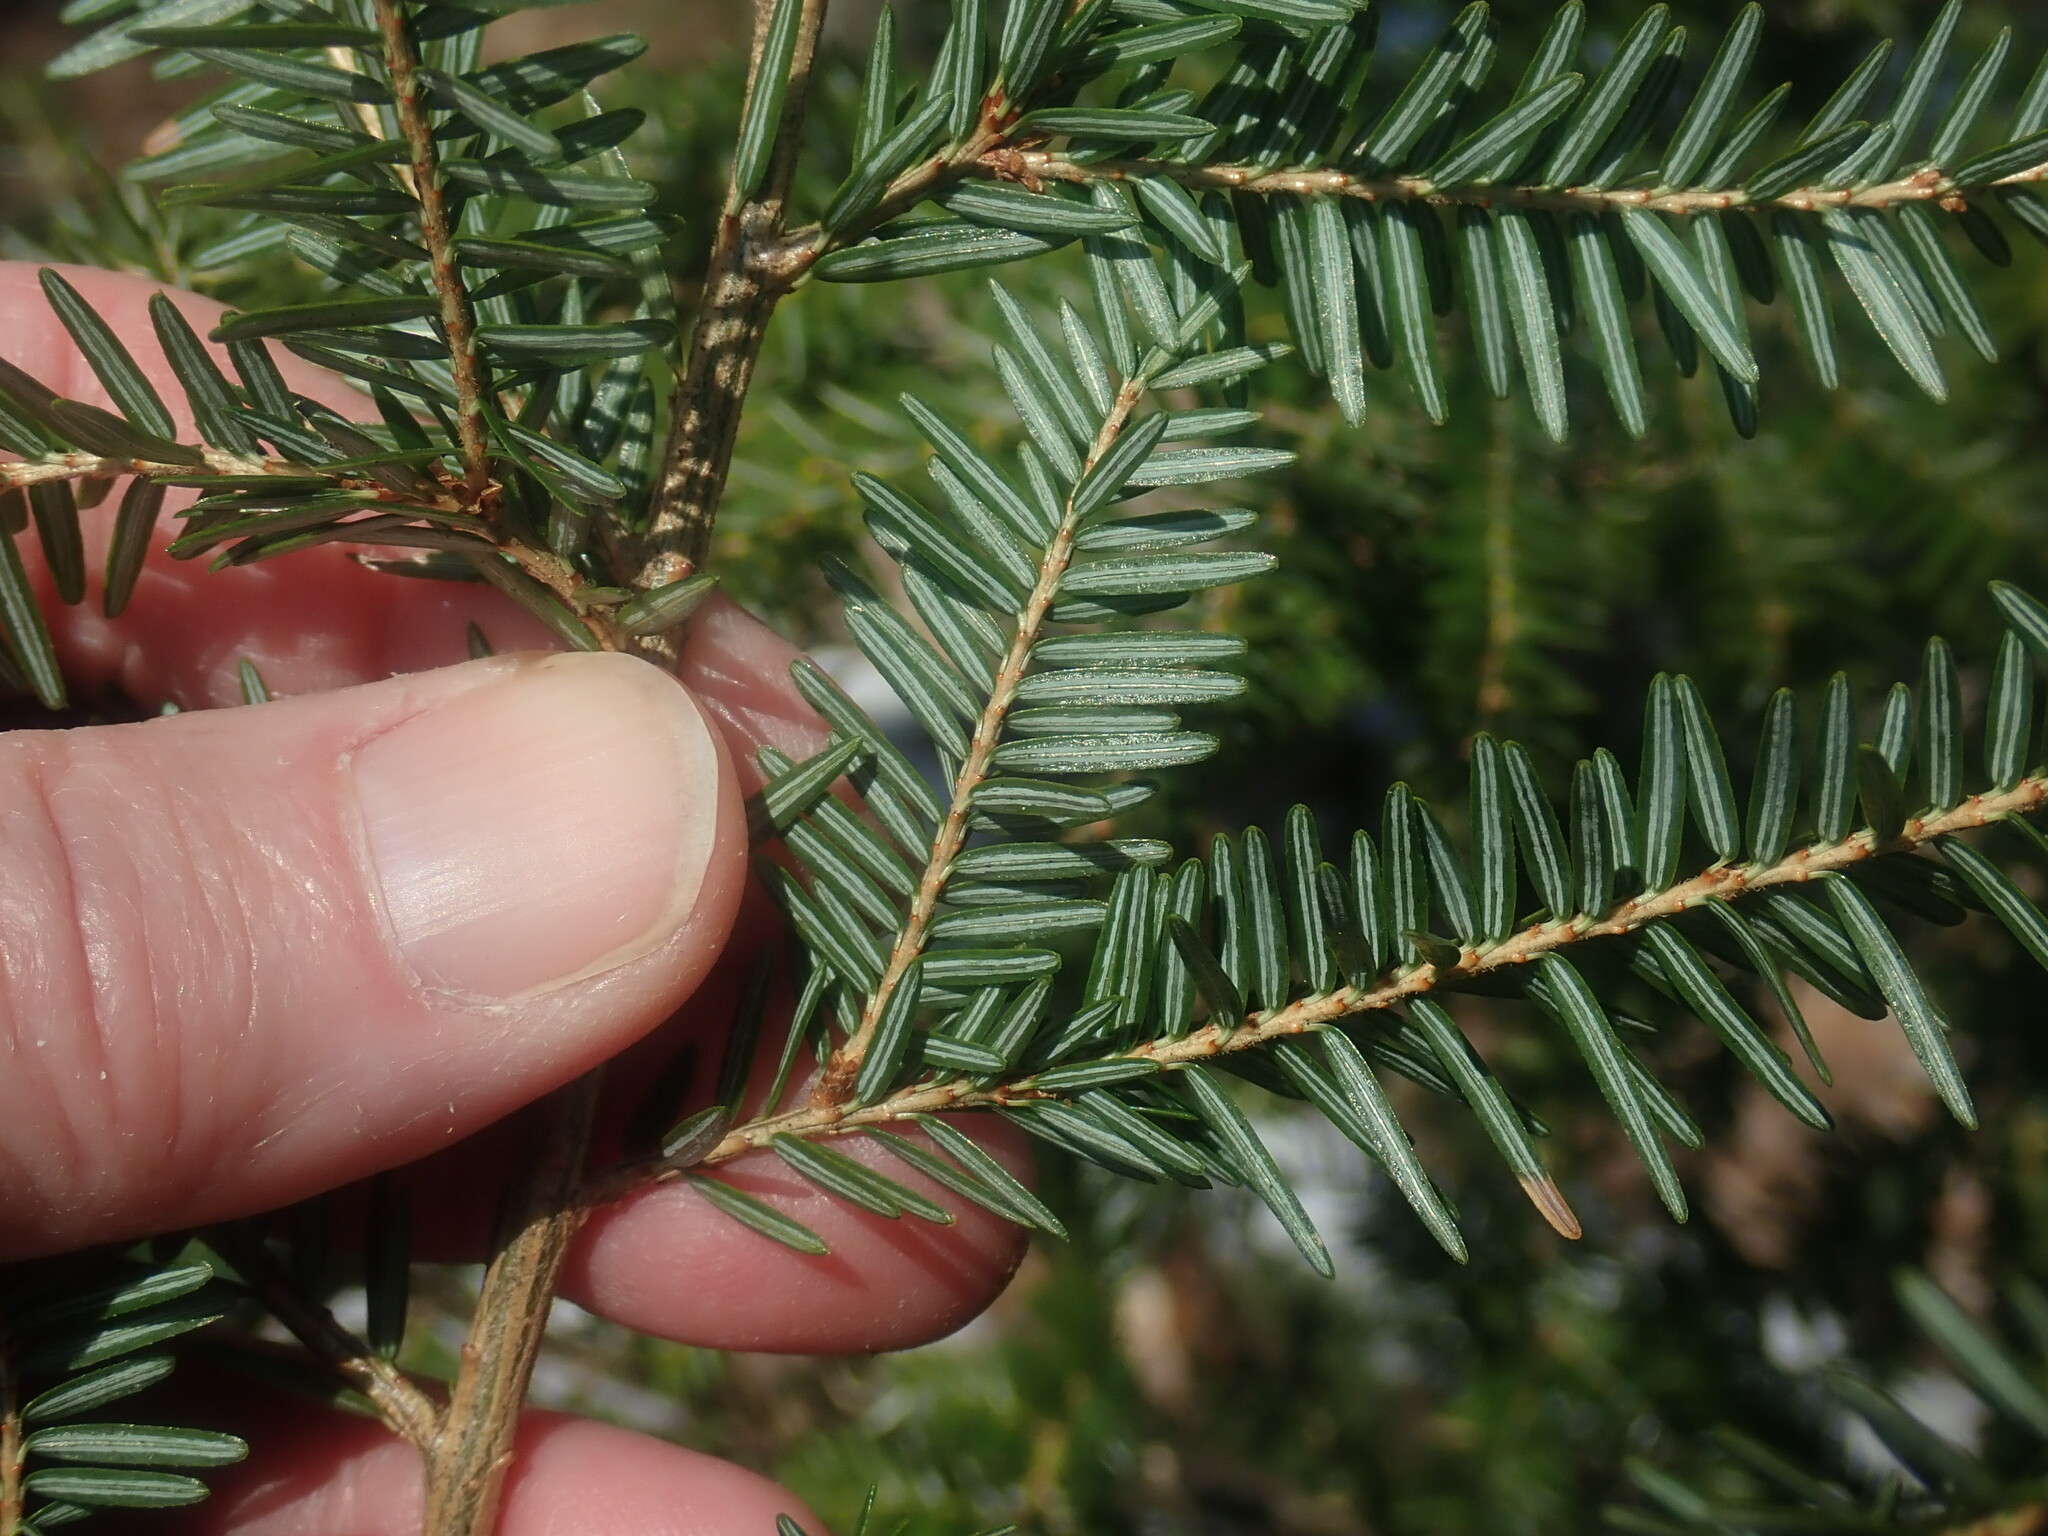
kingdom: Plantae
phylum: Tracheophyta
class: Pinopsida
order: Pinales
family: Pinaceae
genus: Tsuga
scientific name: Tsuga canadensis
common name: Eastern hemlock
